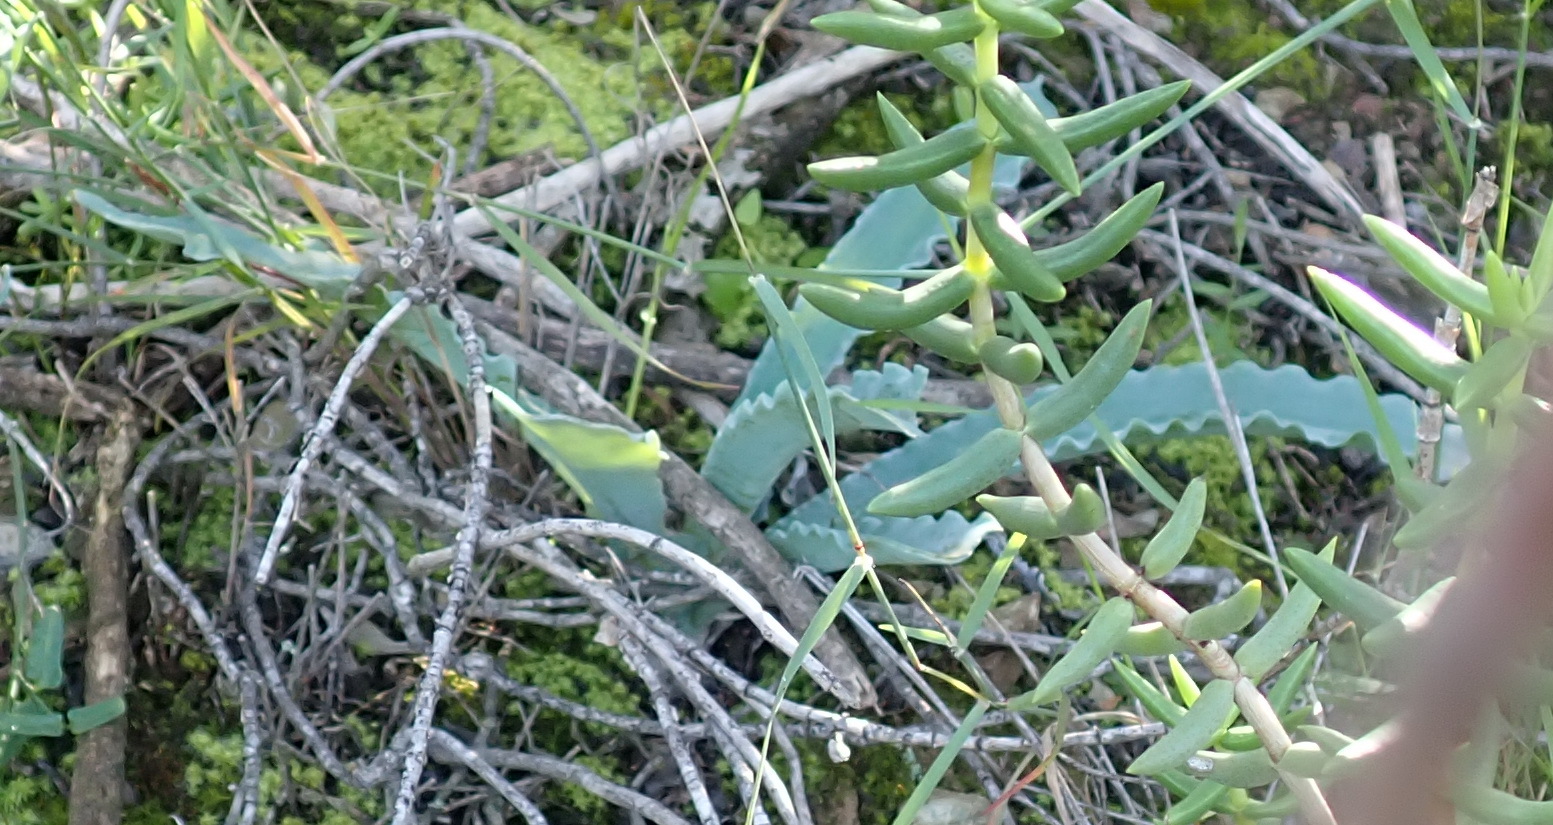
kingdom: Plantae
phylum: Tracheophyta
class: Liliopsida
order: Asparagales
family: Asparagaceae
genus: Veltheimia
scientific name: Veltheimia capensis
